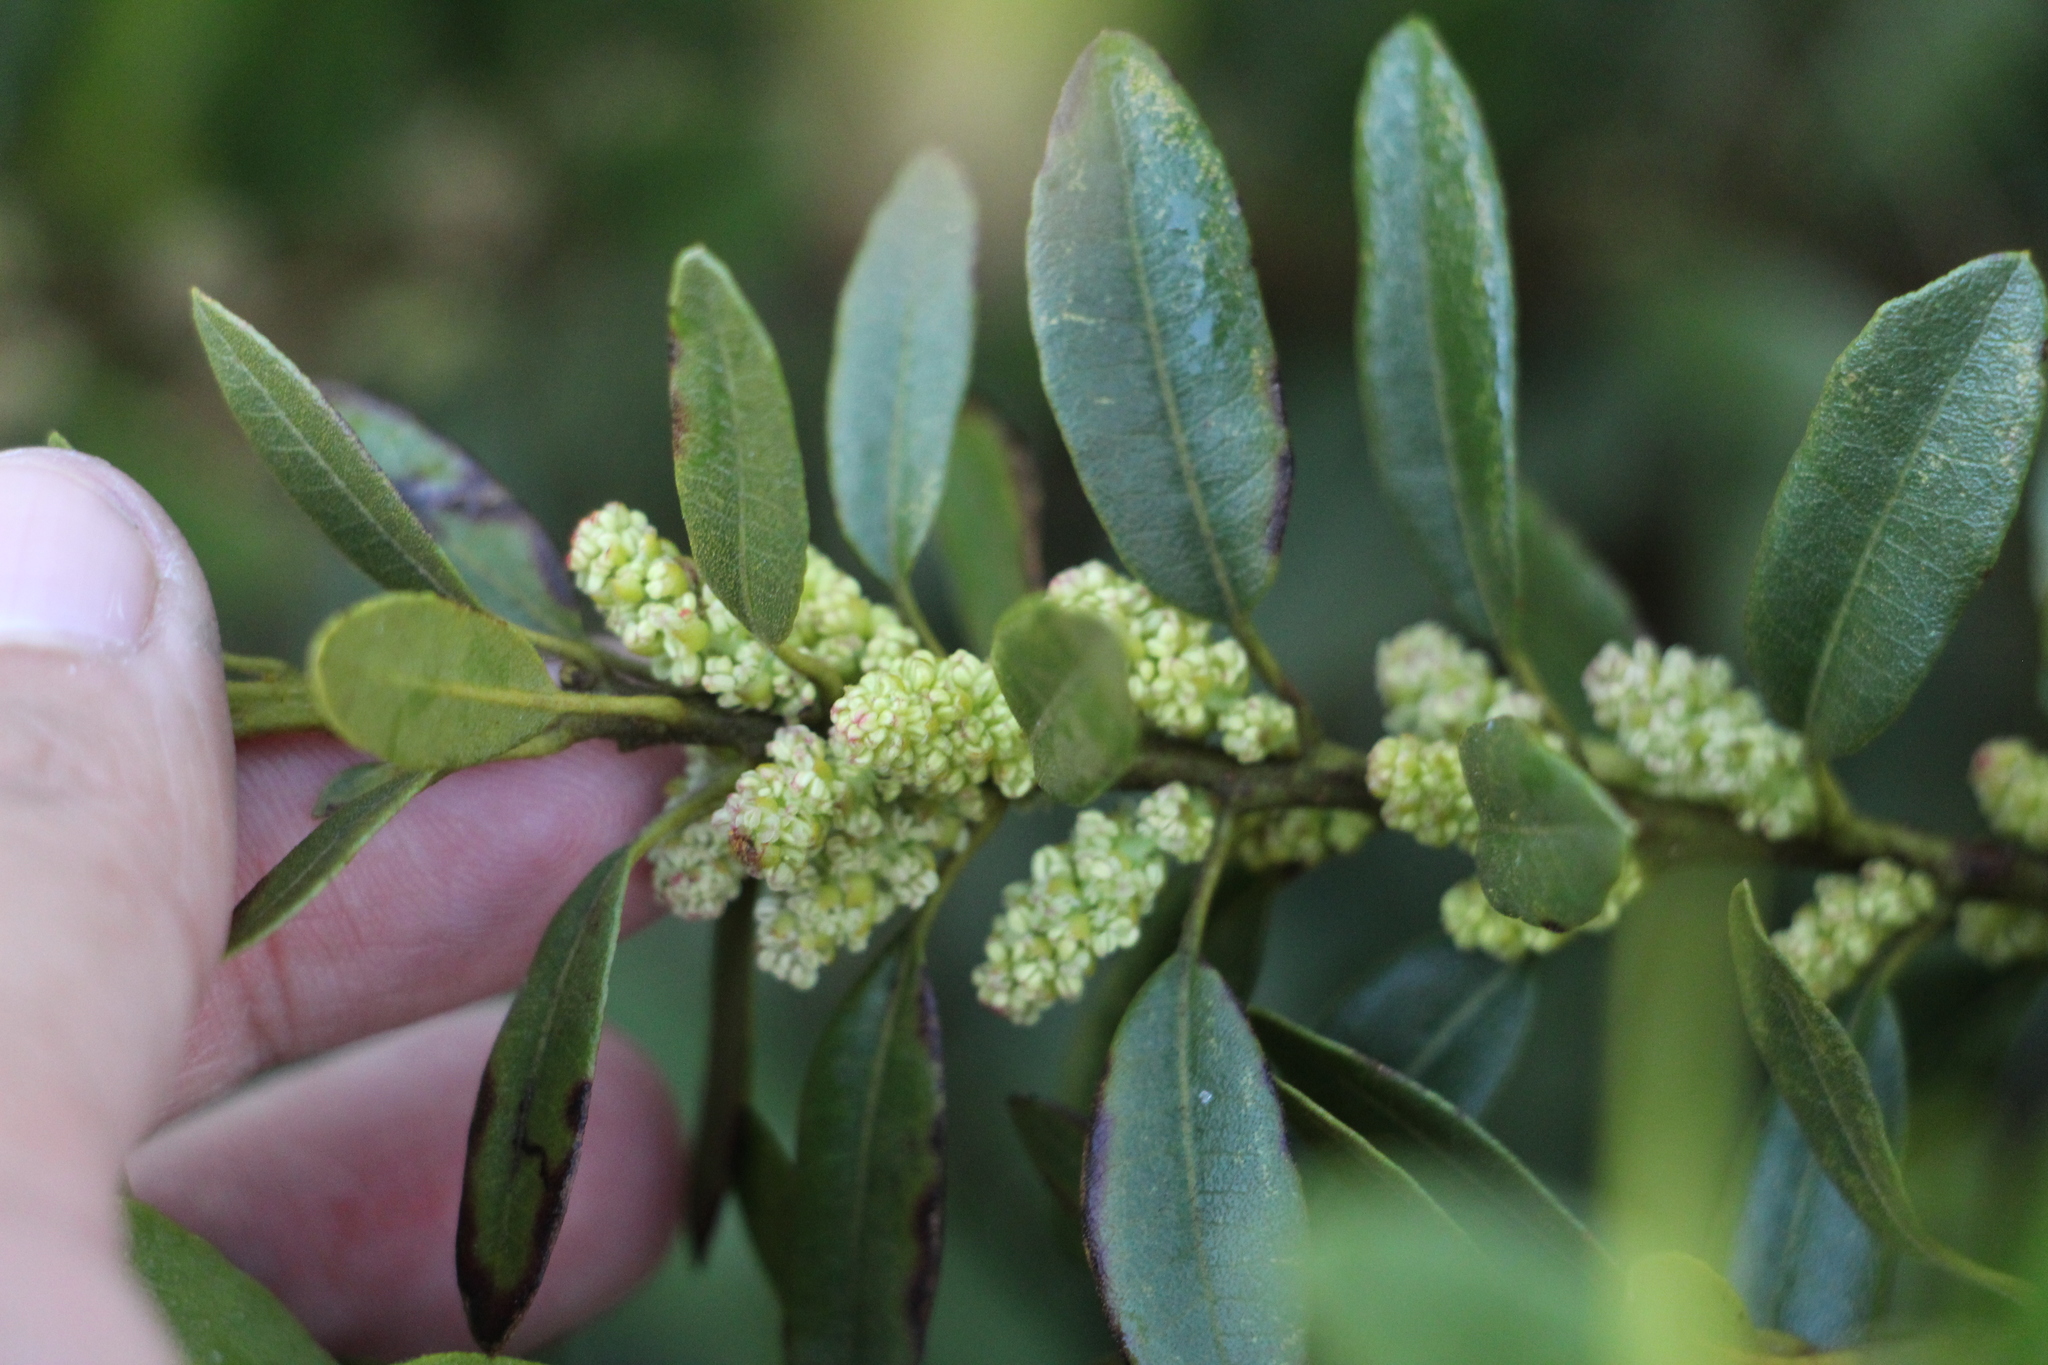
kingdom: Plantae
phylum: Tracheophyta
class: Magnoliopsida
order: Fagales
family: Myricaceae
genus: Morella
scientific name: Morella parvifolia
